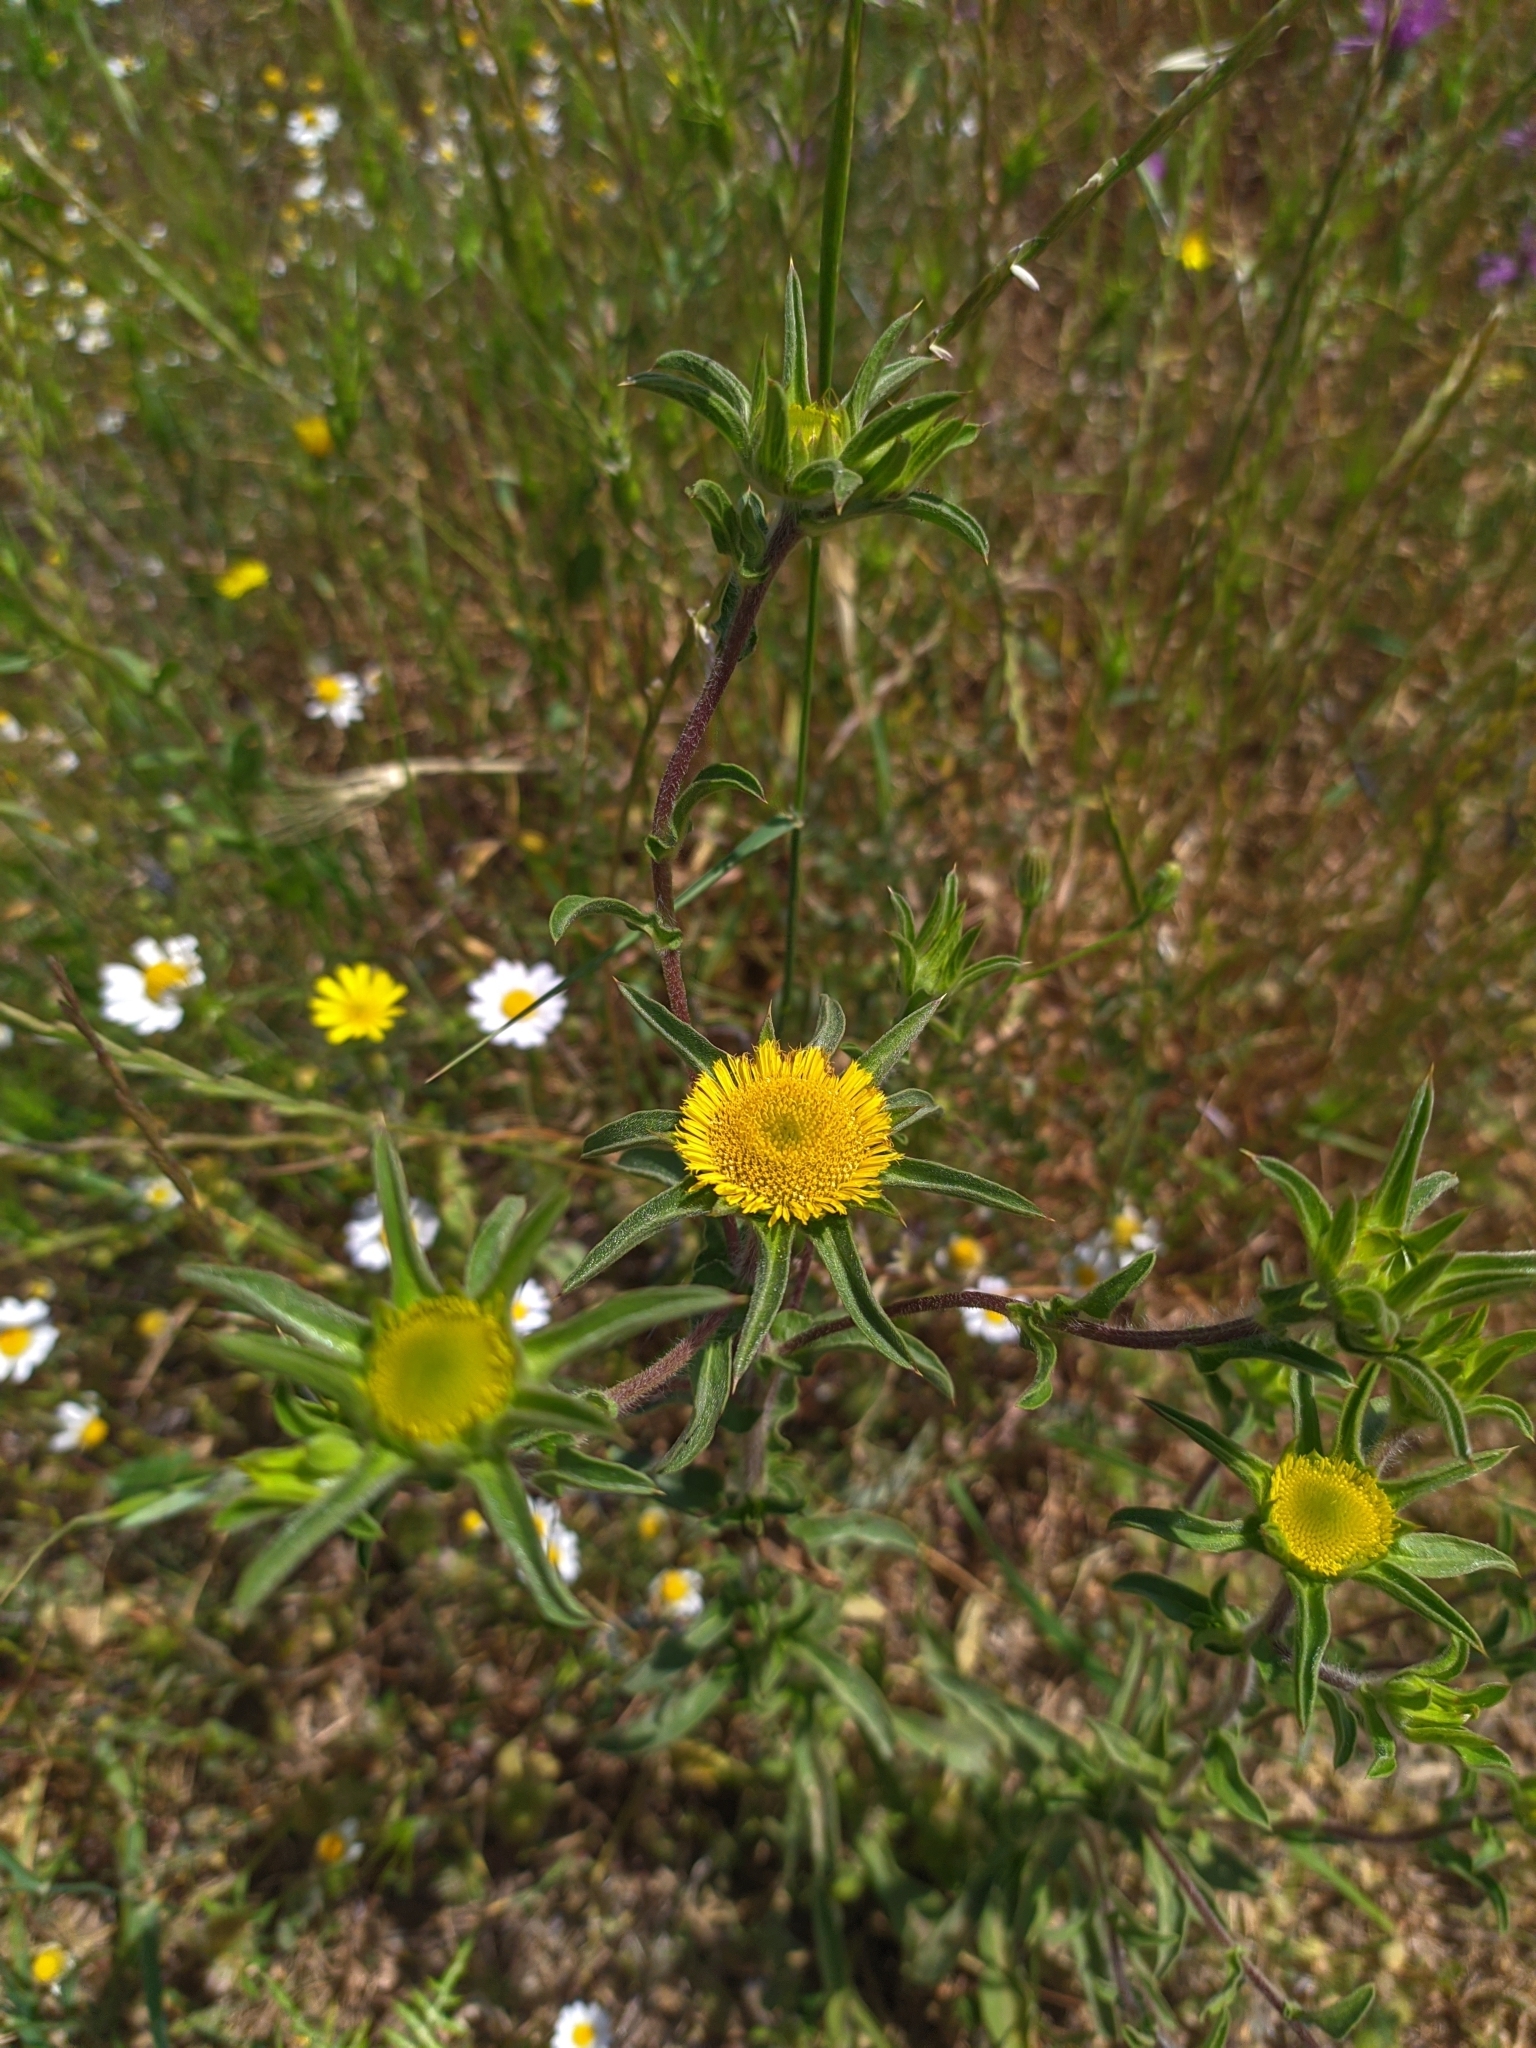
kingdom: Plantae
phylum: Tracheophyta
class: Magnoliopsida
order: Asterales
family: Asteraceae
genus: Pallenis
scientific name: Pallenis spinosa
